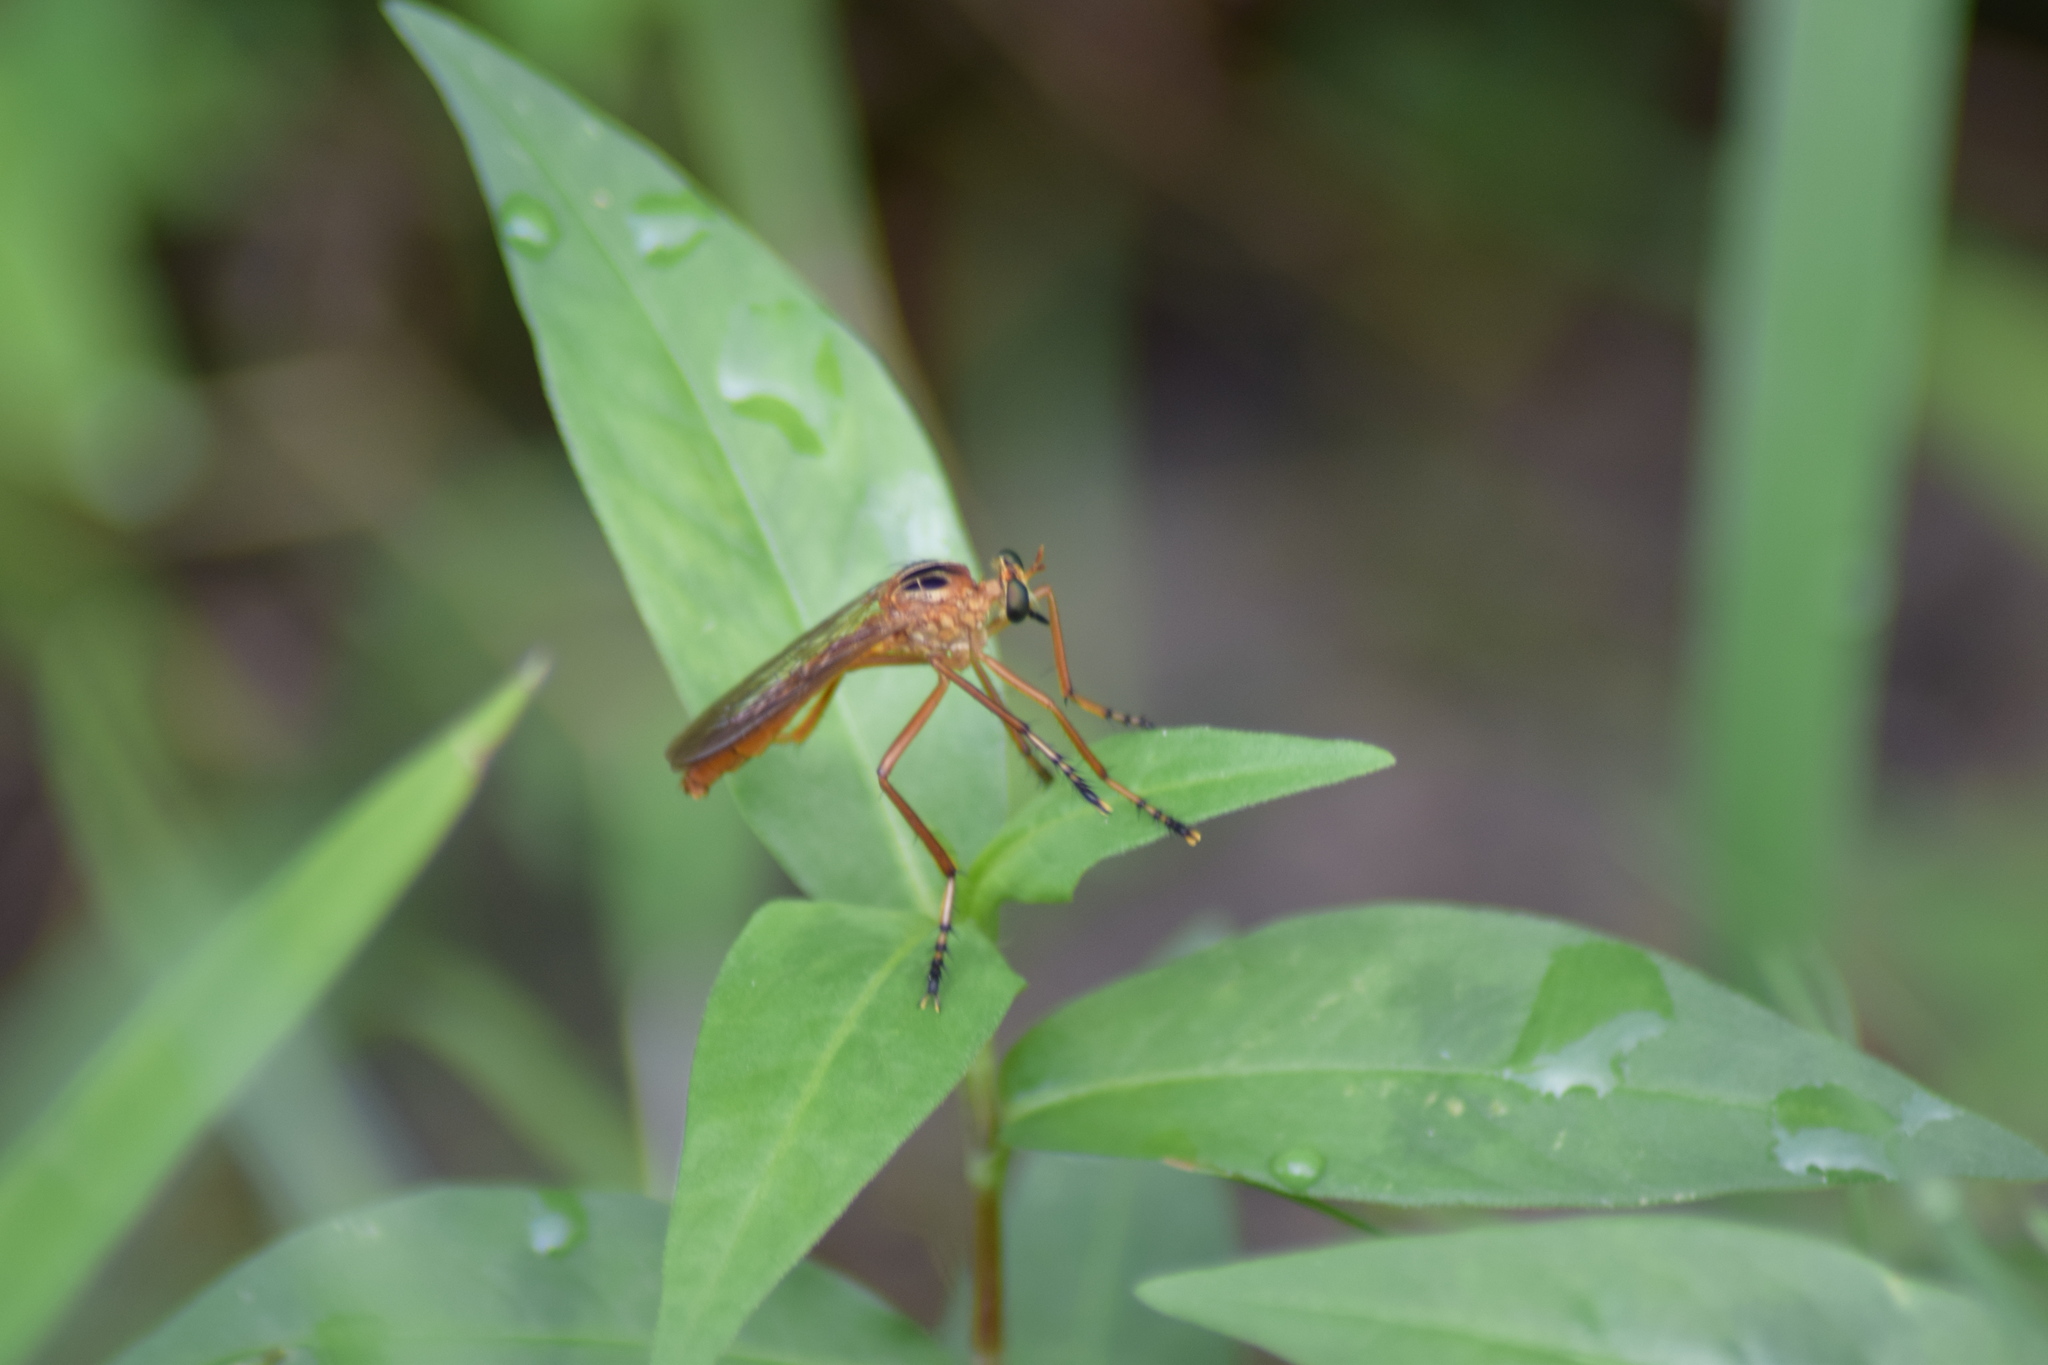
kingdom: Animalia
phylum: Arthropoda
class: Insecta
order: Diptera
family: Asilidae
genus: Diogmites
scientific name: Diogmites neoternatus
